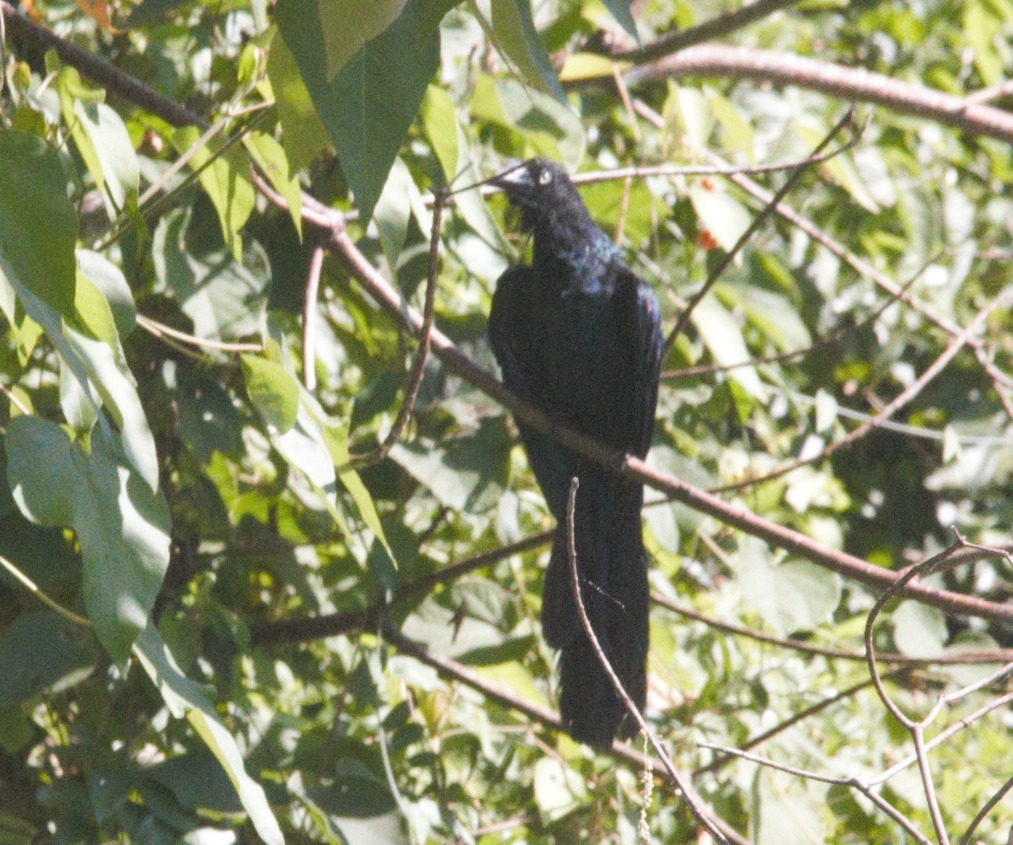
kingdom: Animalia
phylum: Chordata
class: Aves
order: Cuculiformes
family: Cuculidae
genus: Crotophaga
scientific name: Crotophaga major
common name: Greater ani
